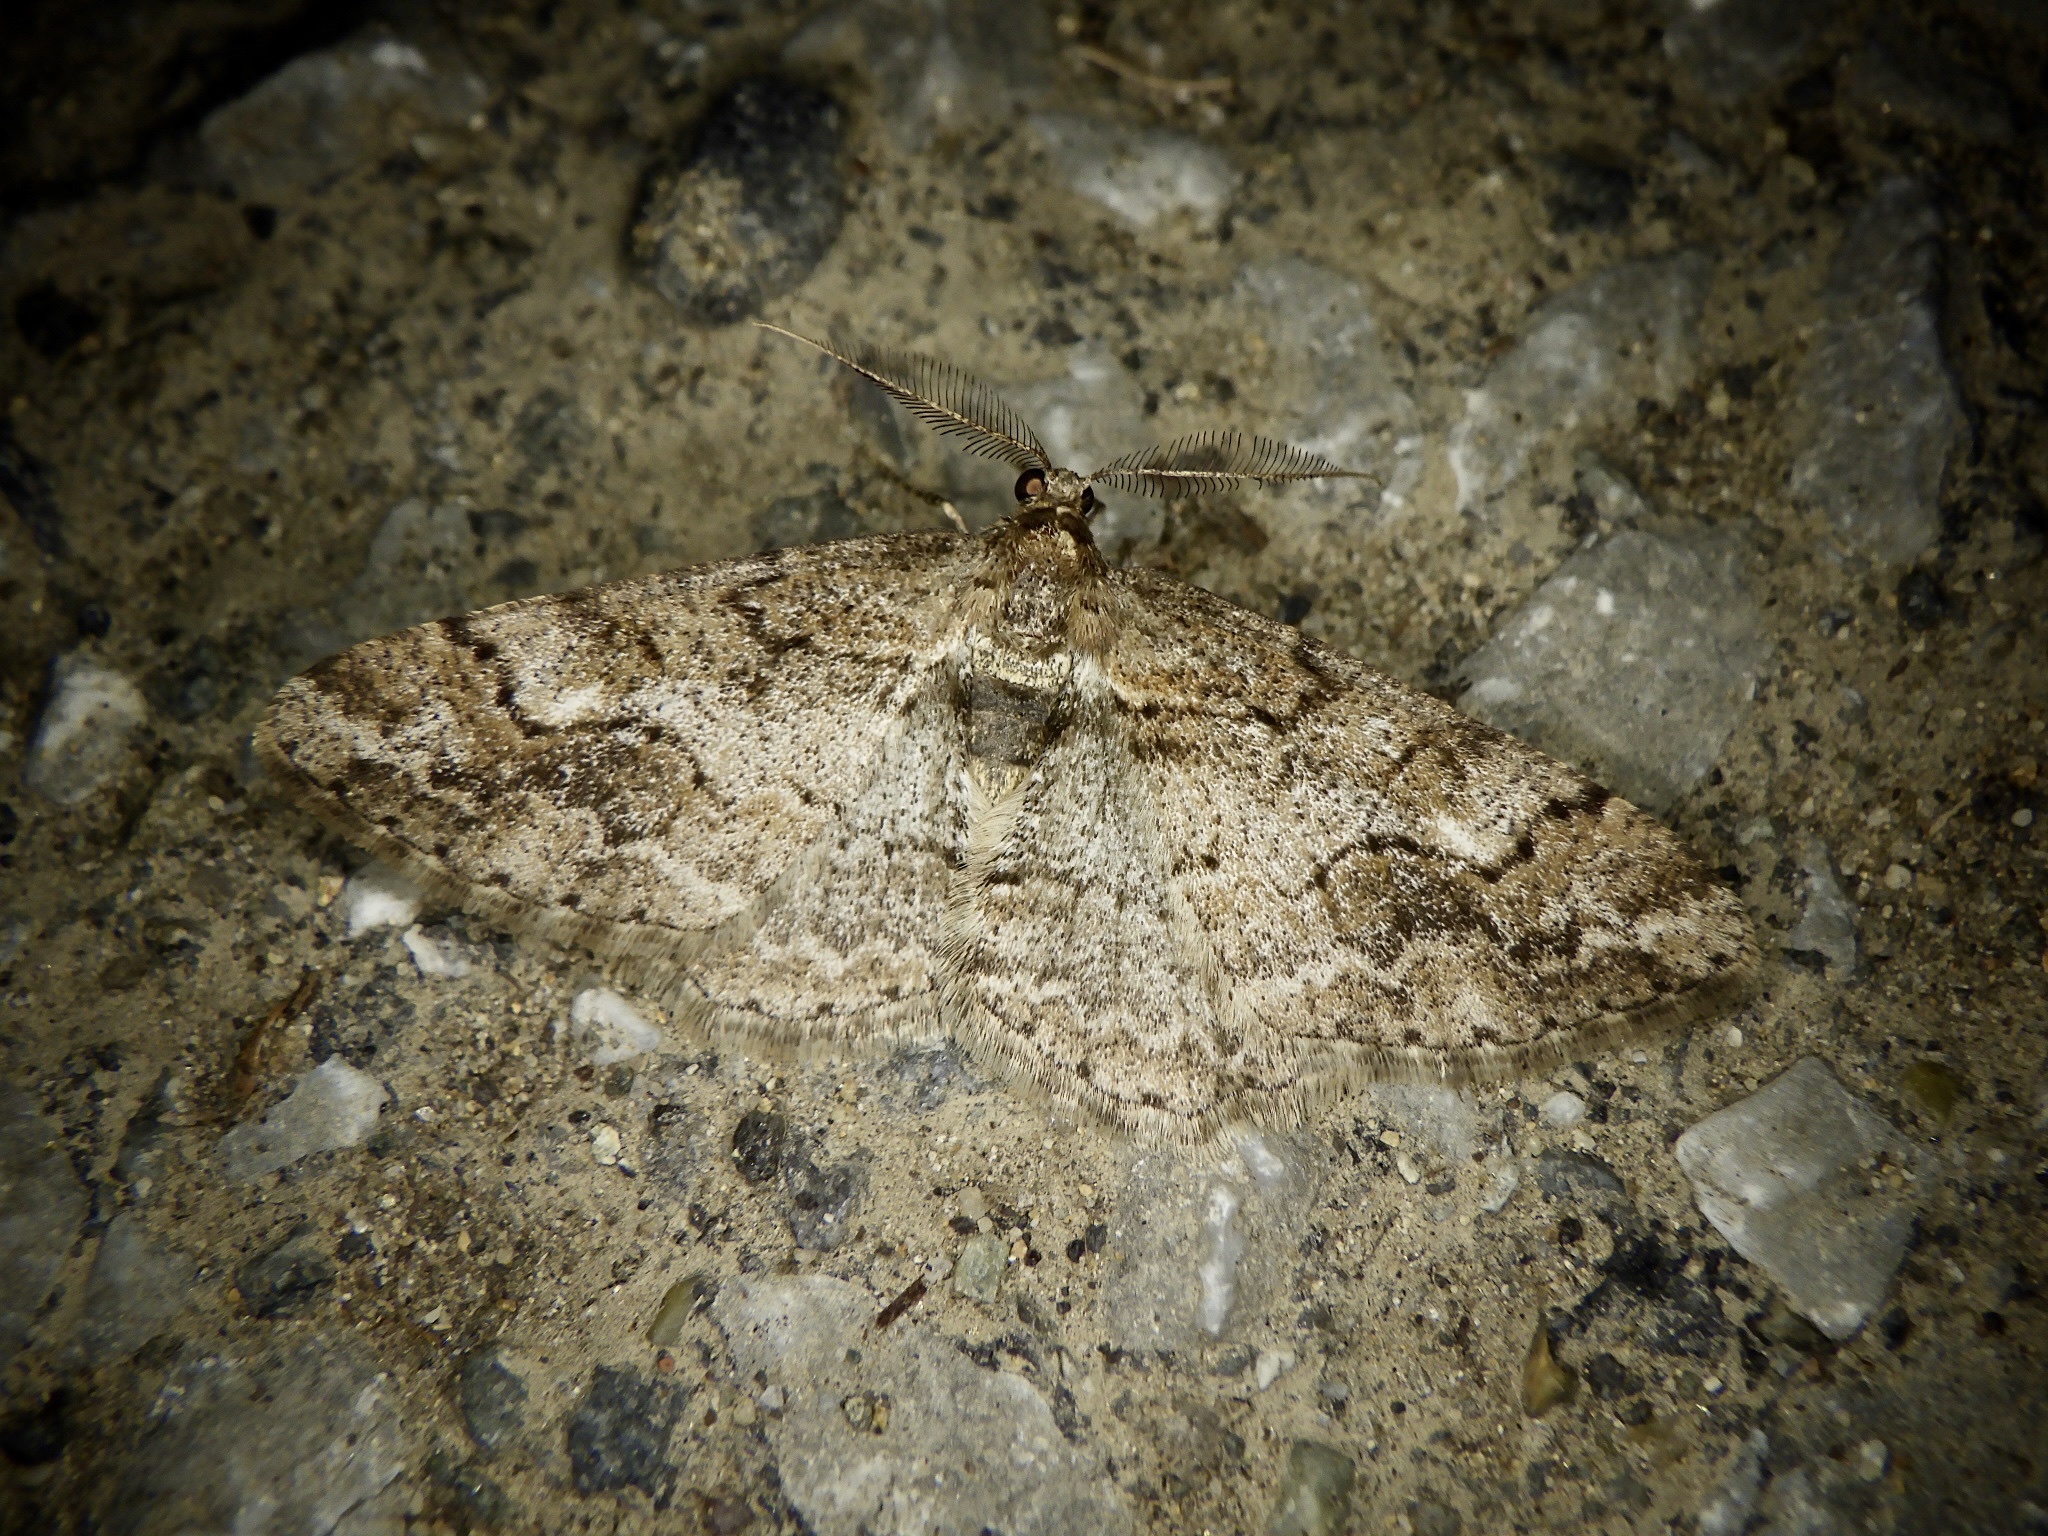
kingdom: Animalia
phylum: Arthropoda
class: Insecta
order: Lepidoptera
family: Geometridae
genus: Pseuderannis
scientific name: Pseuderannis lomozemia
